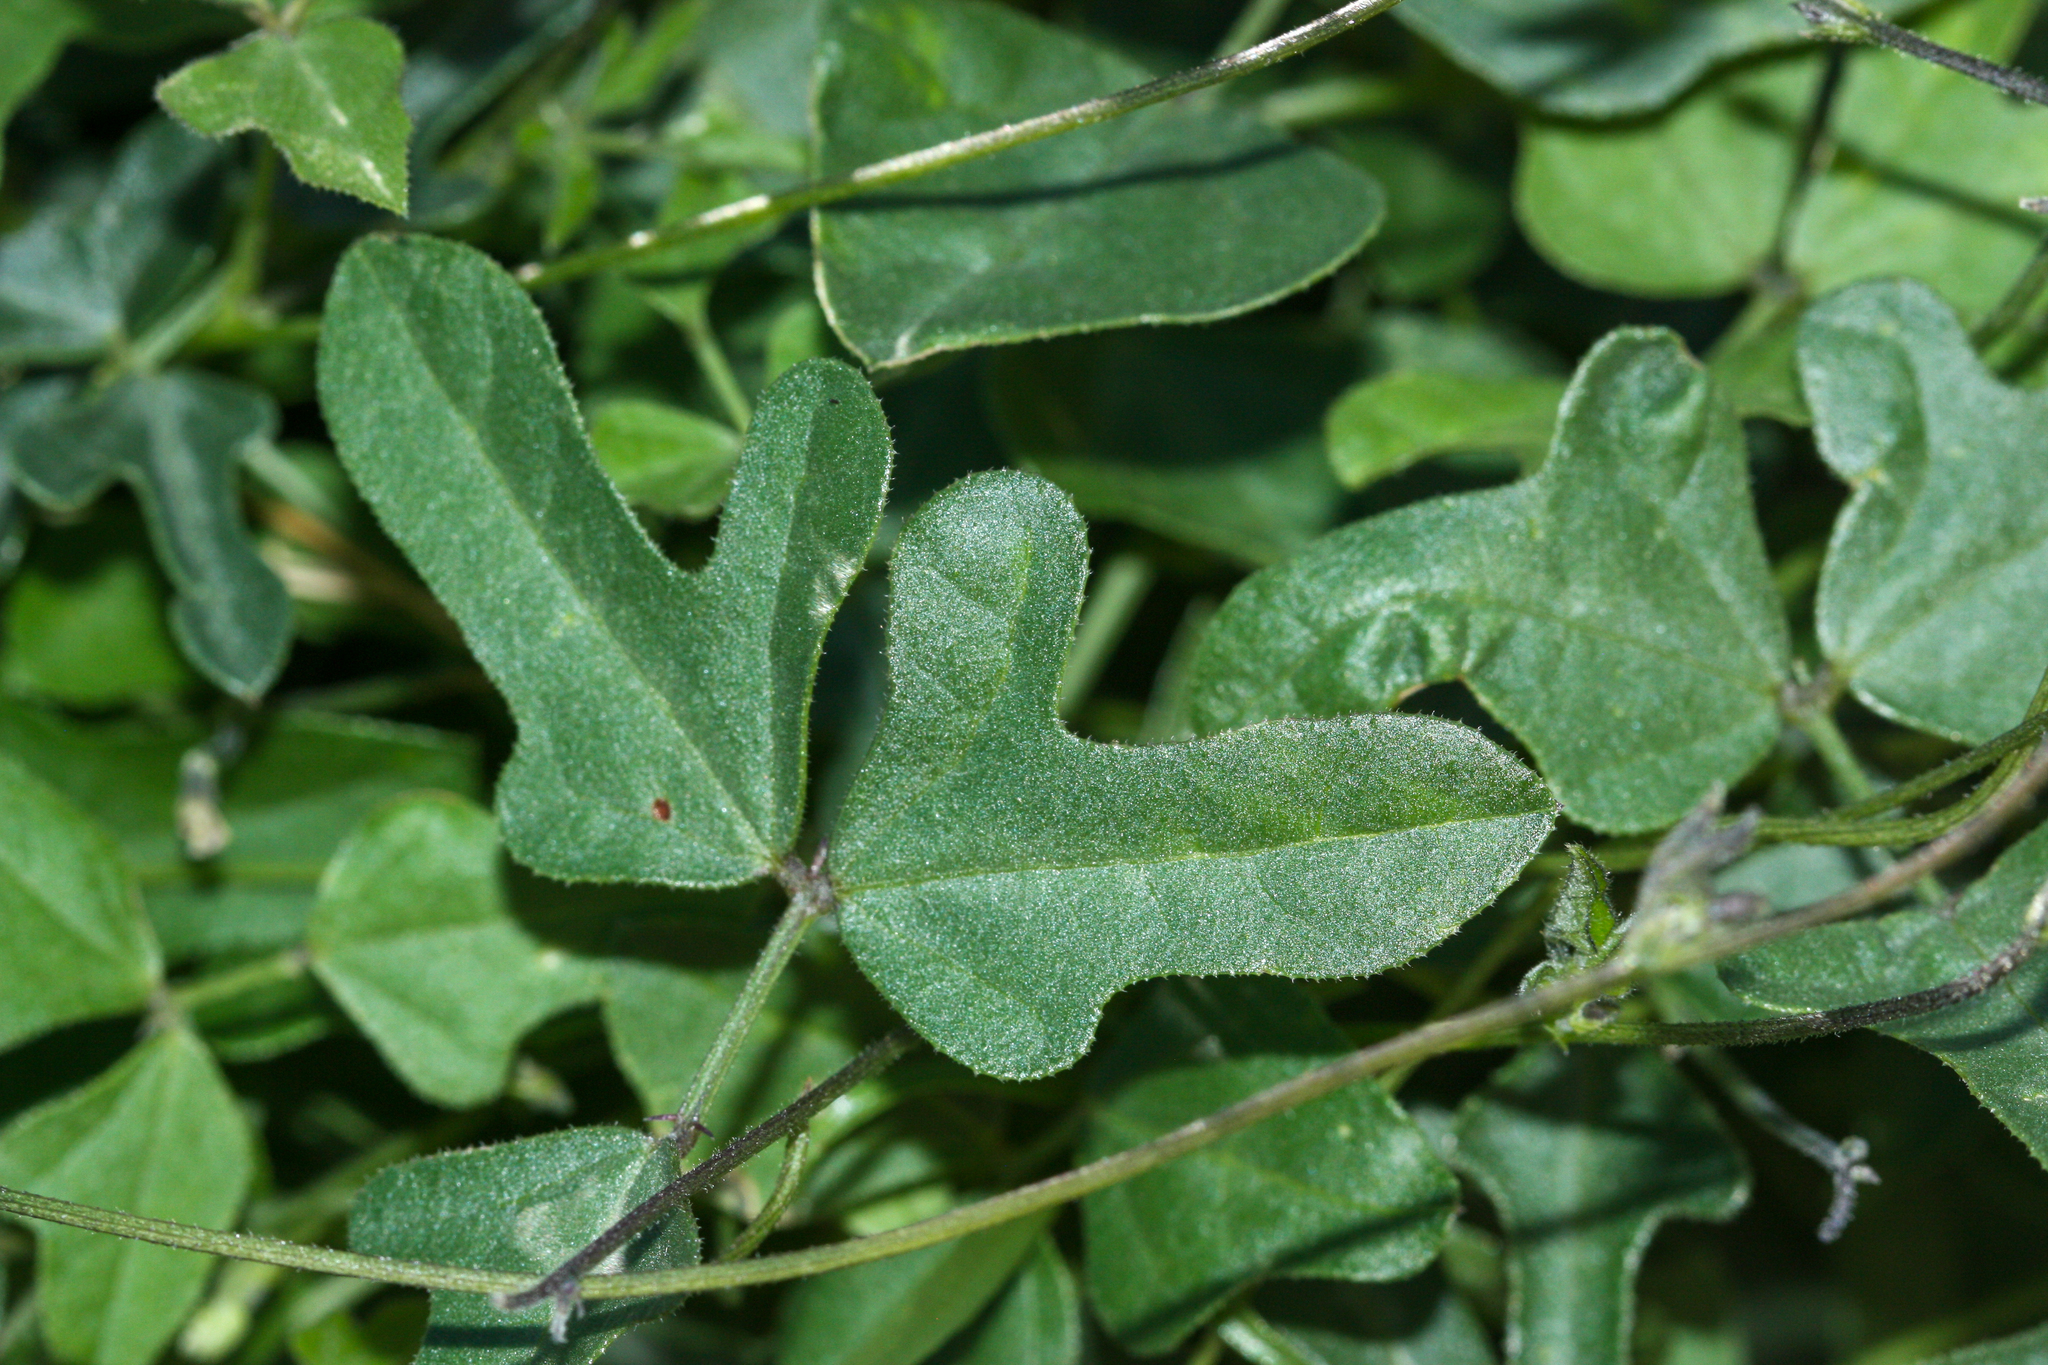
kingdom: Plantae
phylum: Tracheophyta
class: Magnoliopsida
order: Fabales
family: Fabaceae
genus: Phaseolus
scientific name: Phaseolus filiformis
